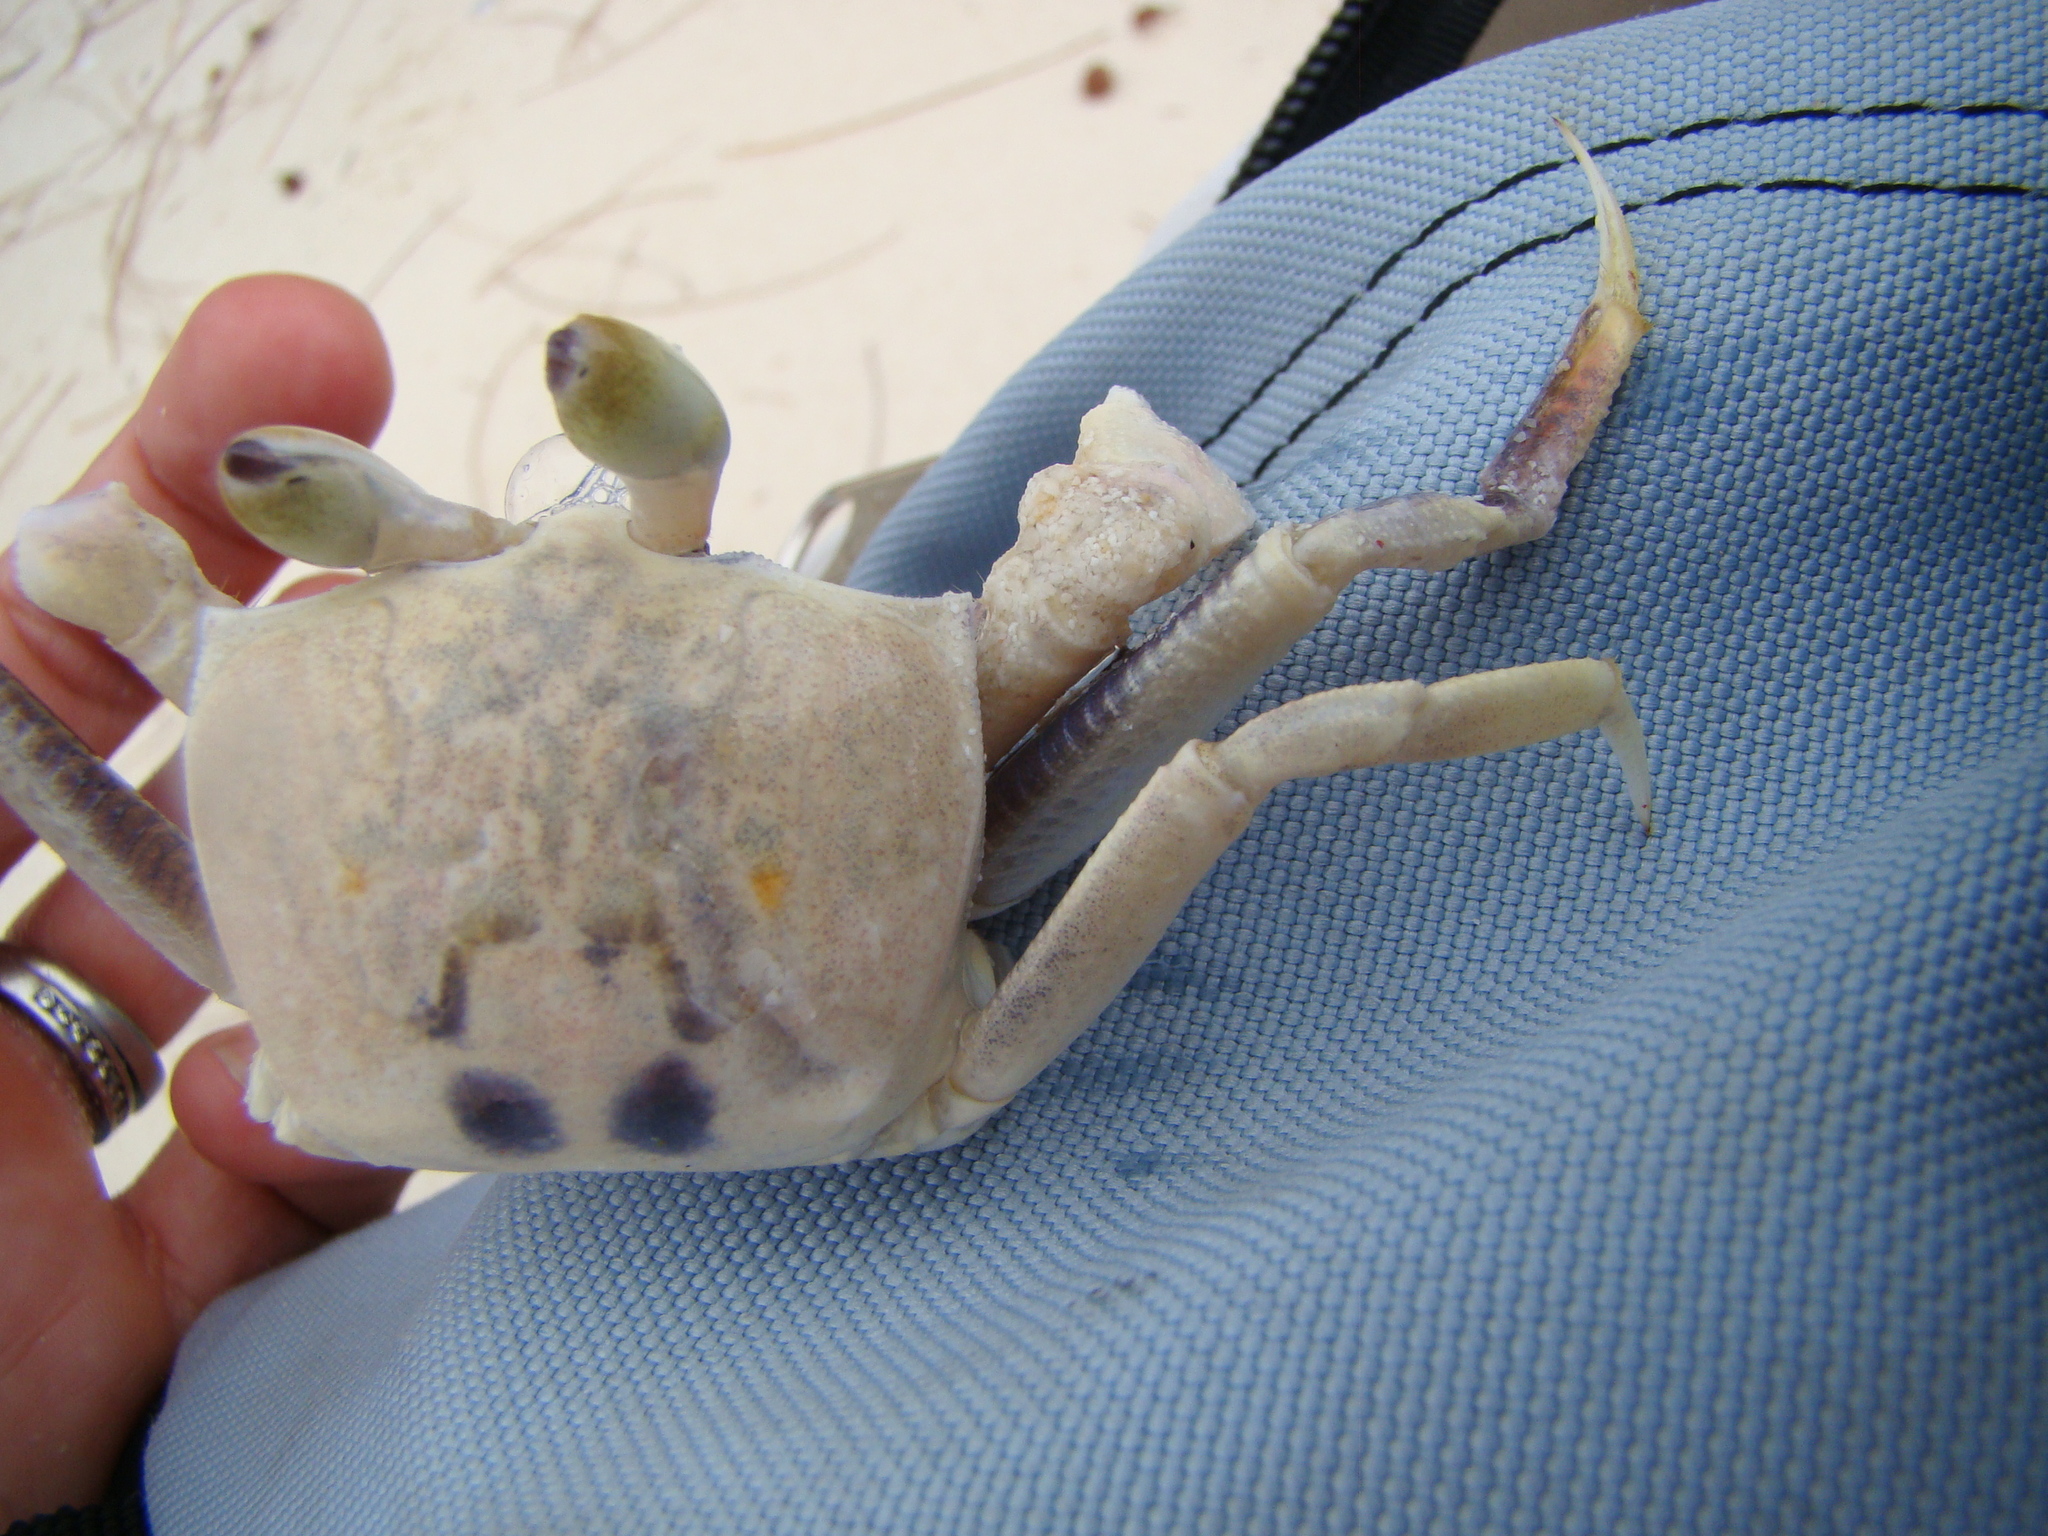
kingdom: Animalia
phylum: Arthropoda
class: Malacostraca
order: Decapoda
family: Ocypodidae
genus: Ocypode
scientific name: Ocypode ceratophthalmus
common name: Indo-pacific ghost crab
